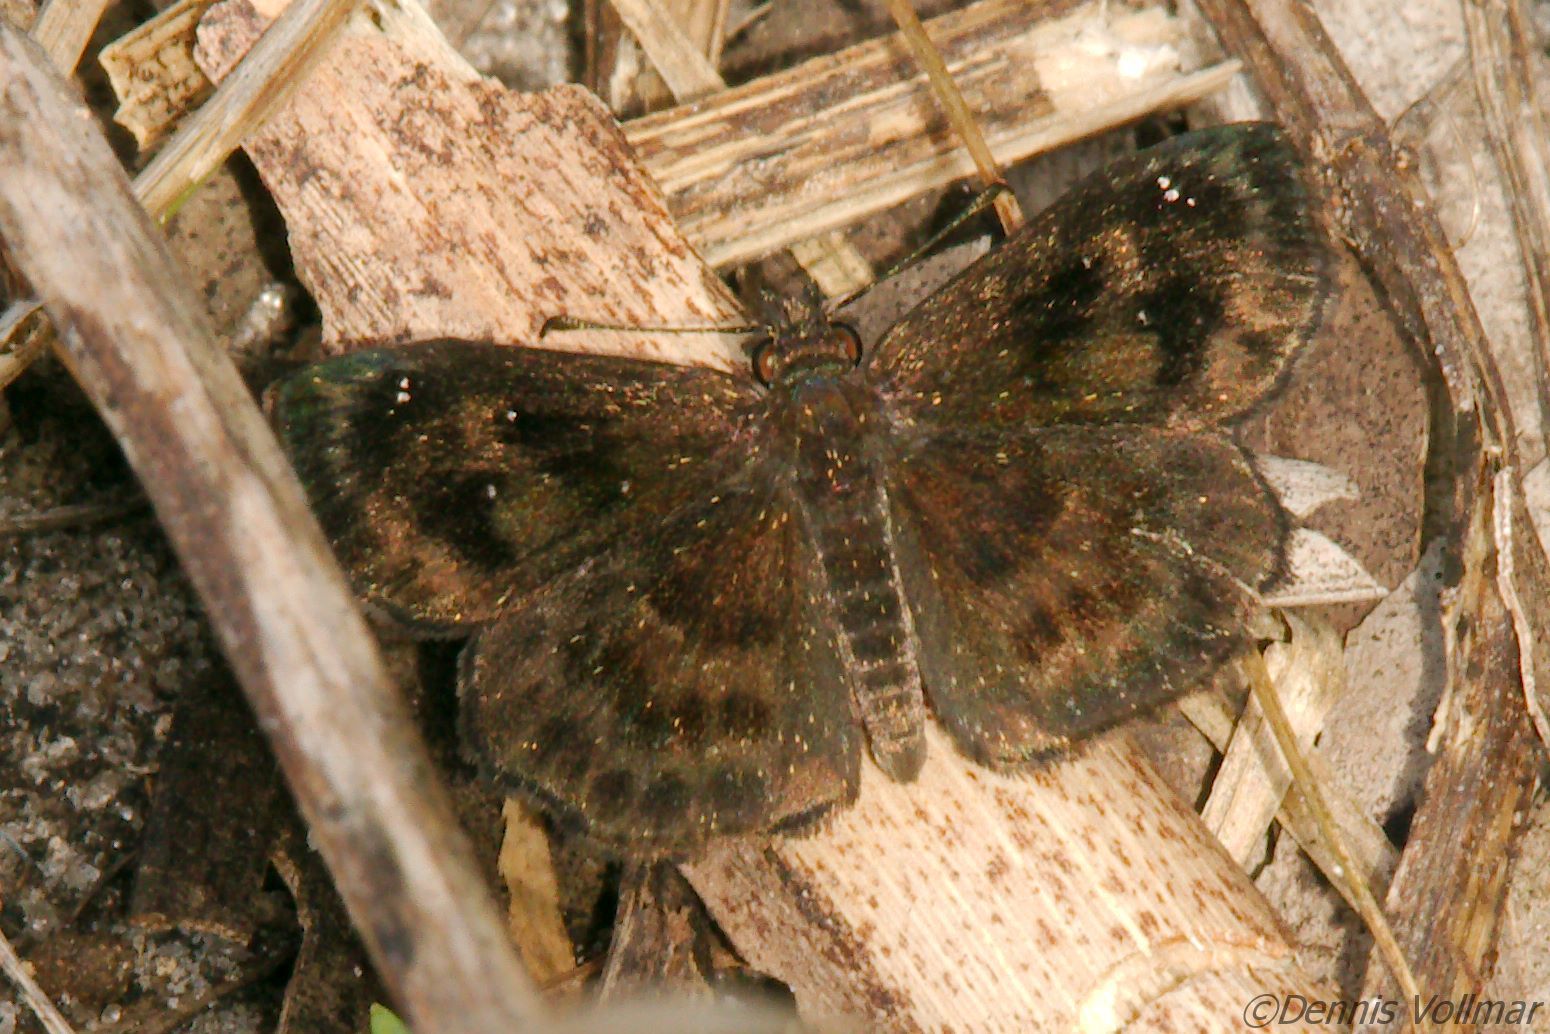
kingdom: Animalia
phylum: Arthropoda
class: Insecta
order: Lepidoptera
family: Hesperiidae
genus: Staphylus
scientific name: Staphylus mazans
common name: Mazans scallopwing
